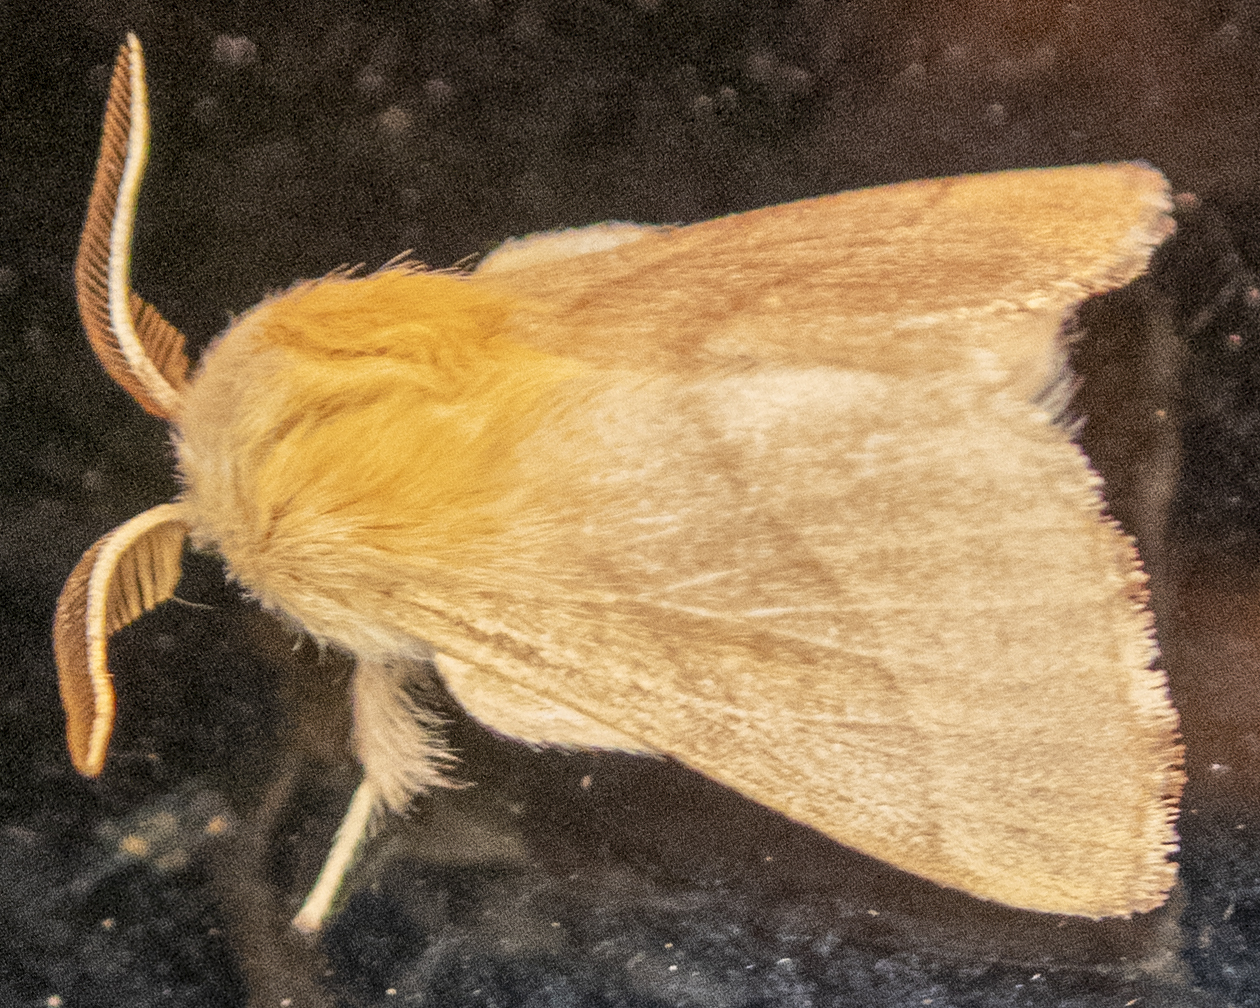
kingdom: Animalia
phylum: Arthropoda
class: Insecta
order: Lepidoptera
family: Lasiocampidae
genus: Malacosoma
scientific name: Malacosoma disstria
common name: Forest tent caterpillar
